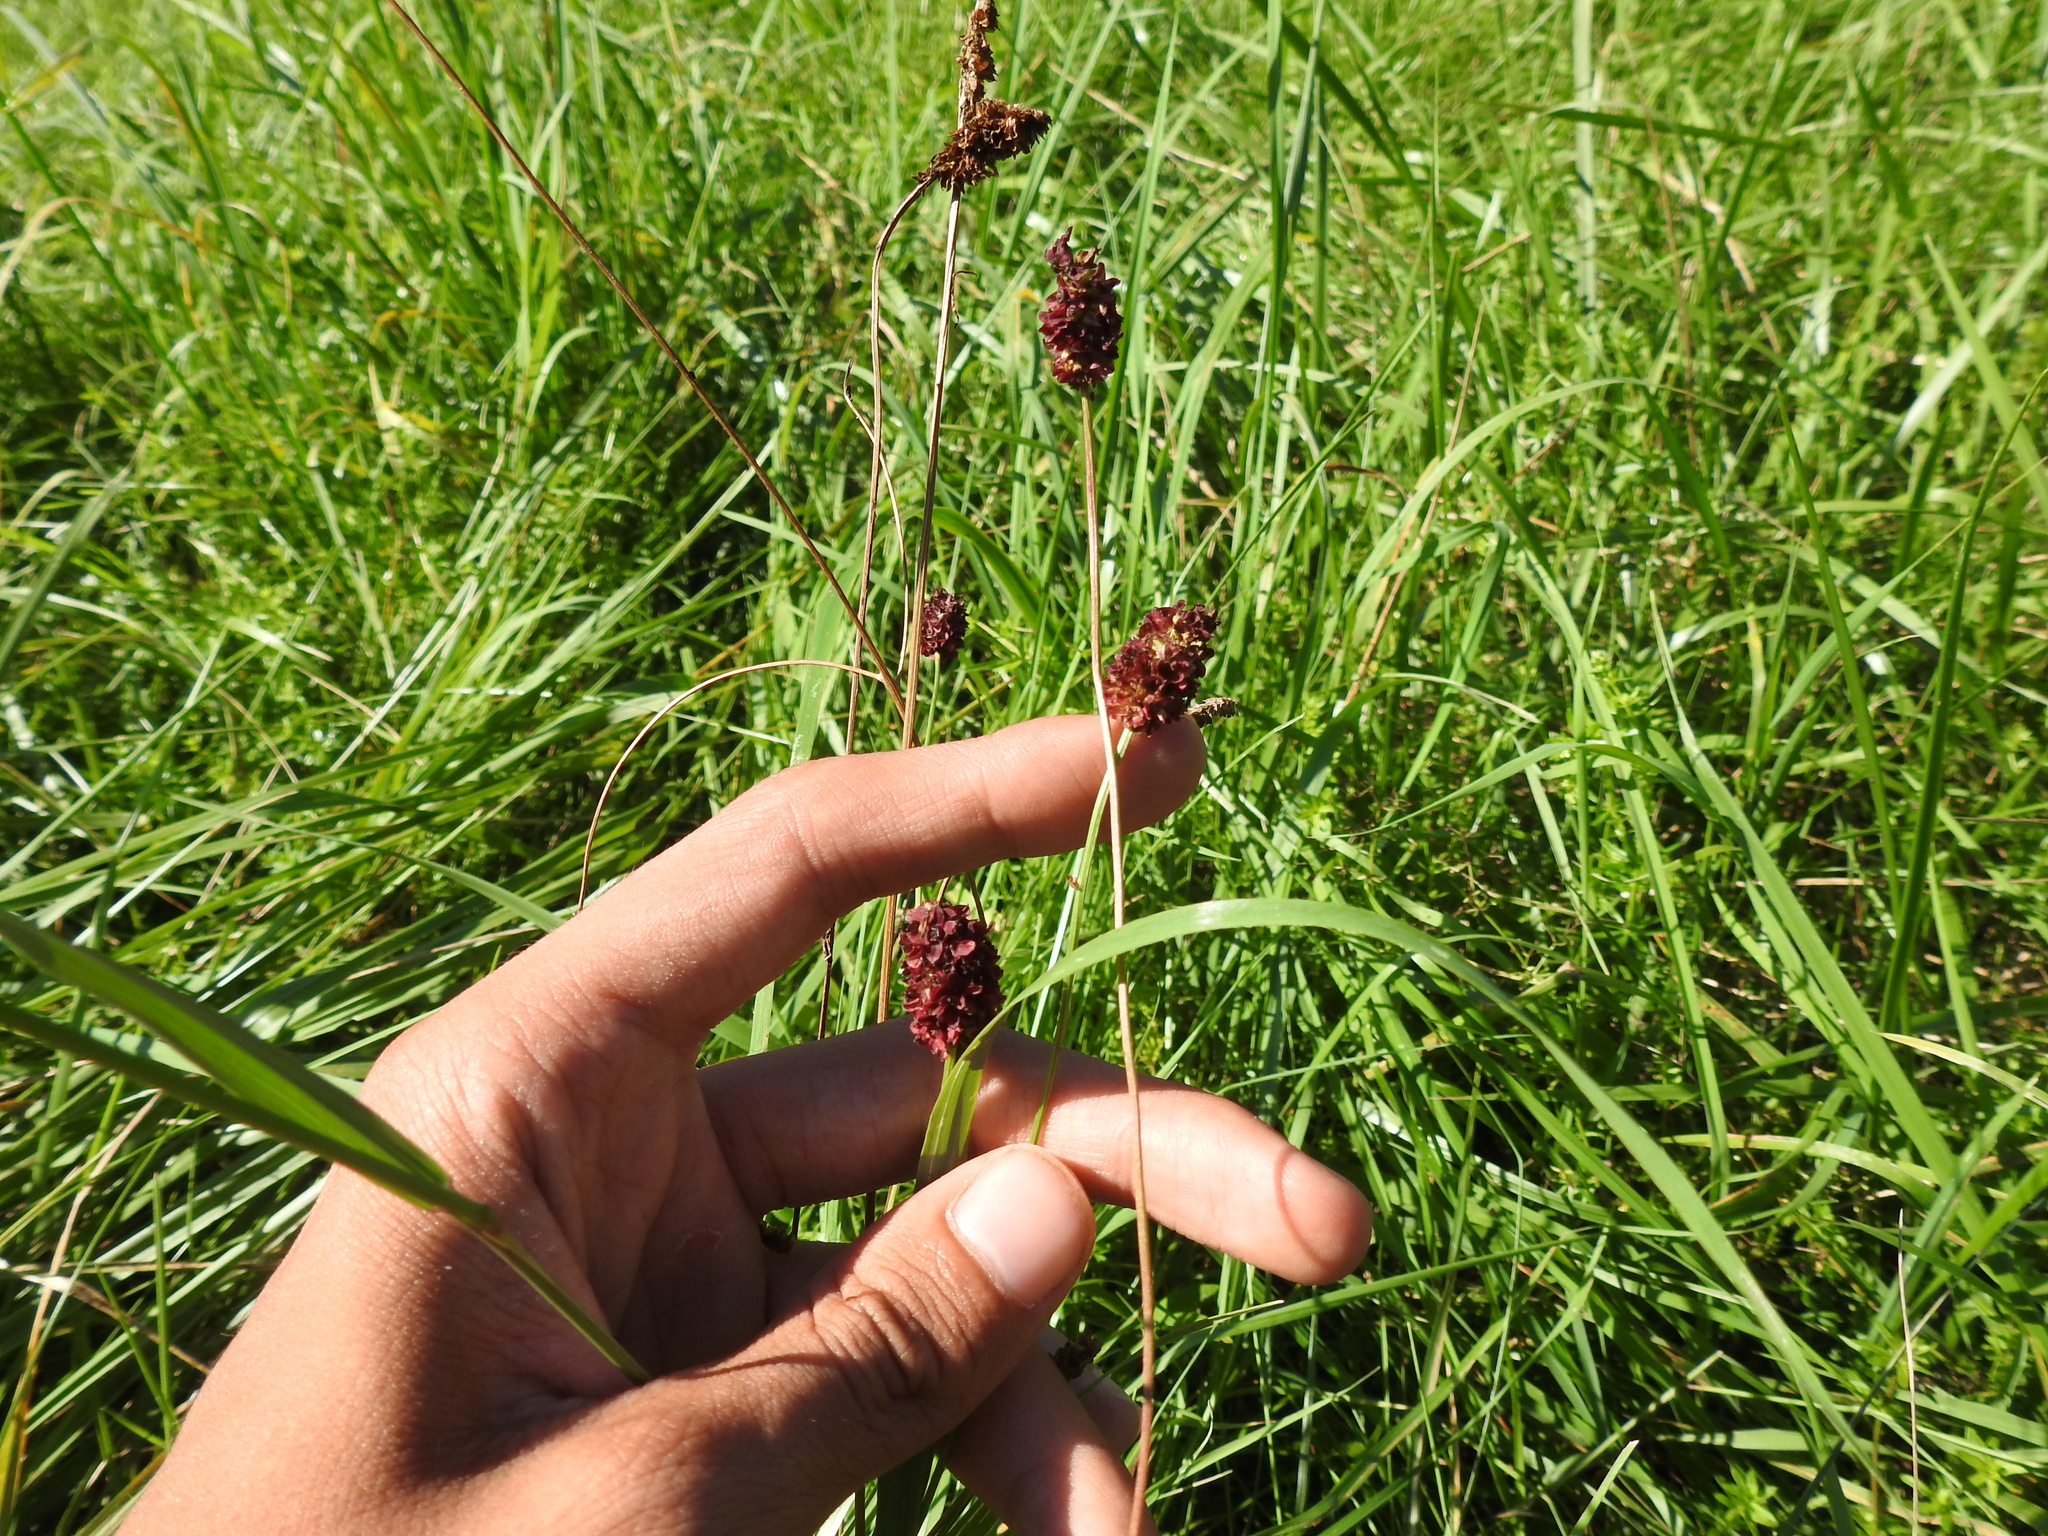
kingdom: Plantae
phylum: Tracheophyta
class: Magnoliopsida
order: Rosales
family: Rosaceae
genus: Sanguisorba
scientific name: Sanguisorba officinalis
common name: Great burnet
